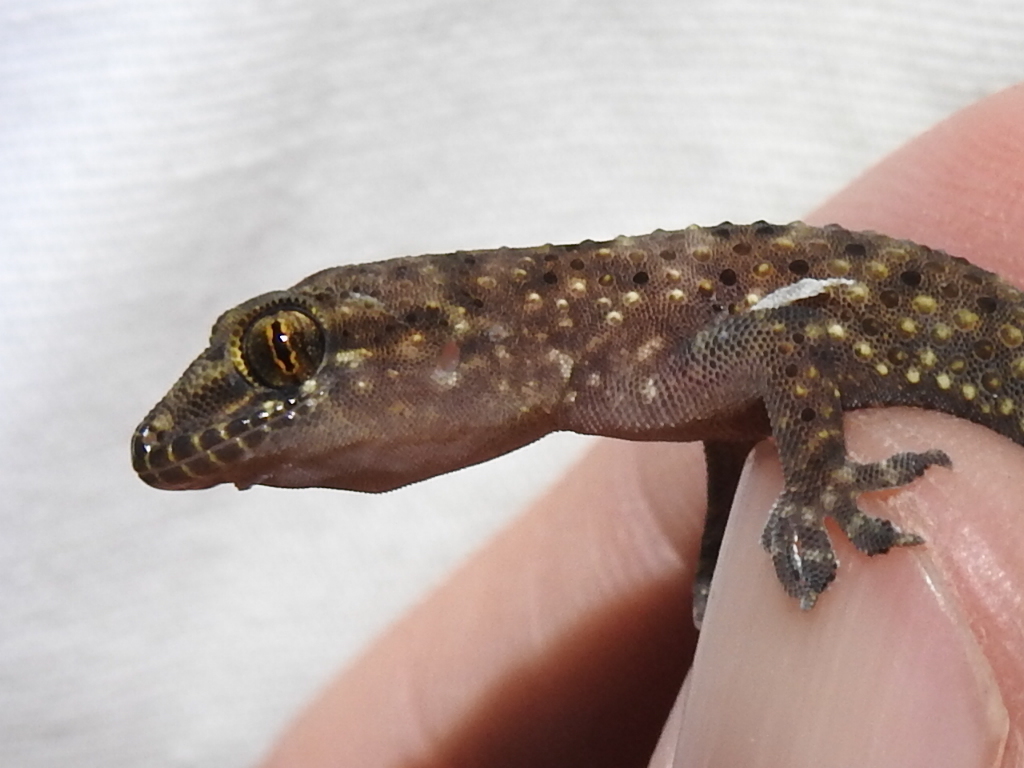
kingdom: Animalia
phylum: Chordata
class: Squamata
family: Gekkonidae
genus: Hemidactylus
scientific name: Hemidactylus turcicus
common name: Turkish gecko
